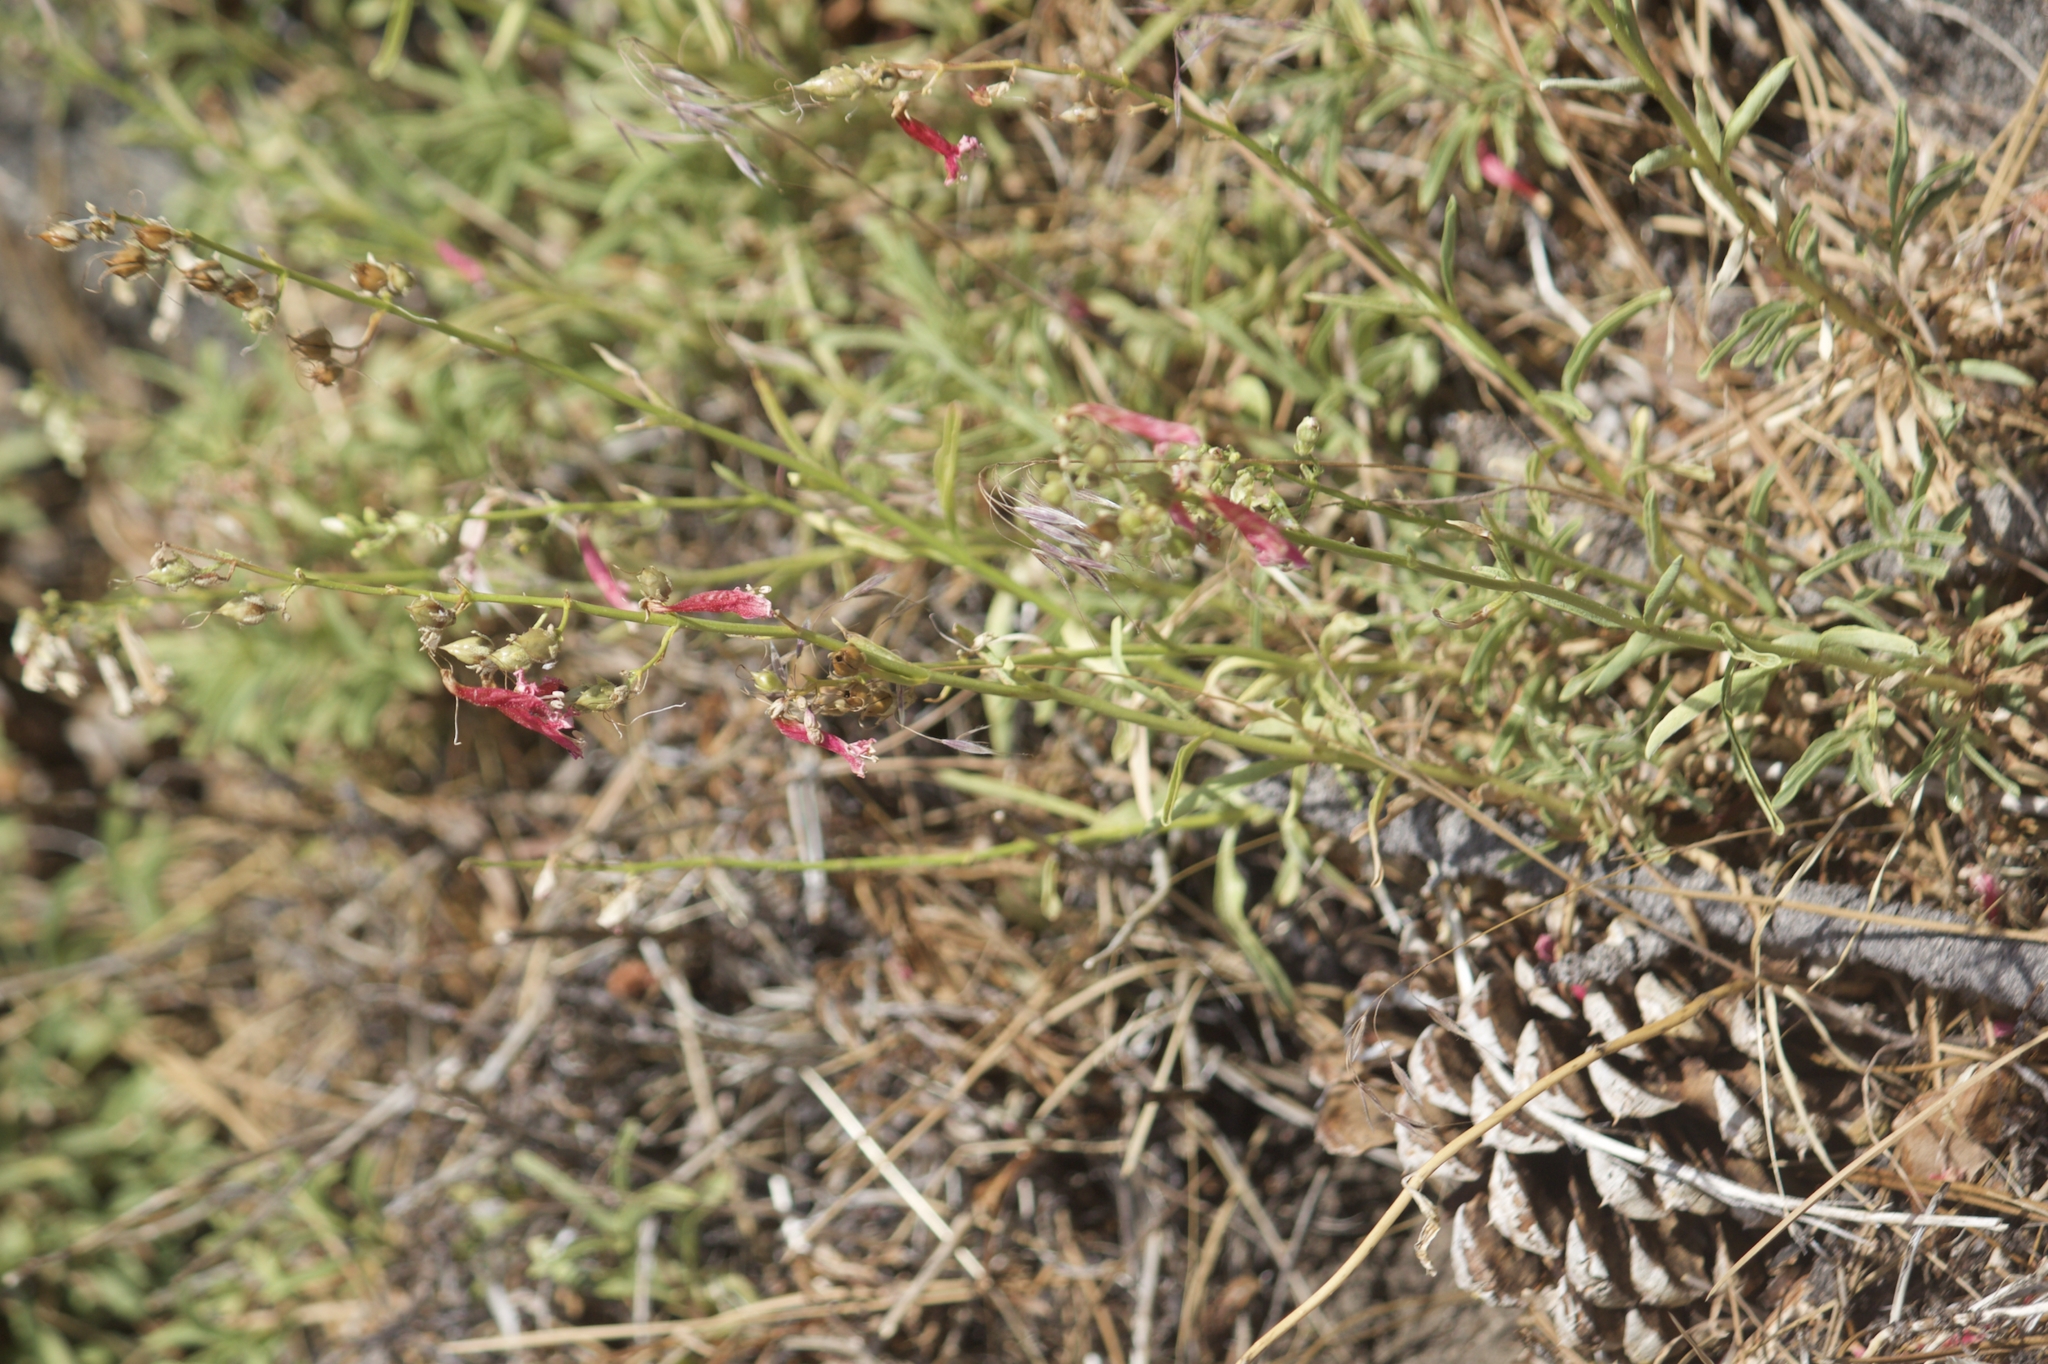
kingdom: Plantae
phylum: Tracheophyta
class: Magnoliopsida
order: Lamiales
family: Plantaginaceae
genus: Penstemon
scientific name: Penstemon rostriflorus
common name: Bridges's penstemon
